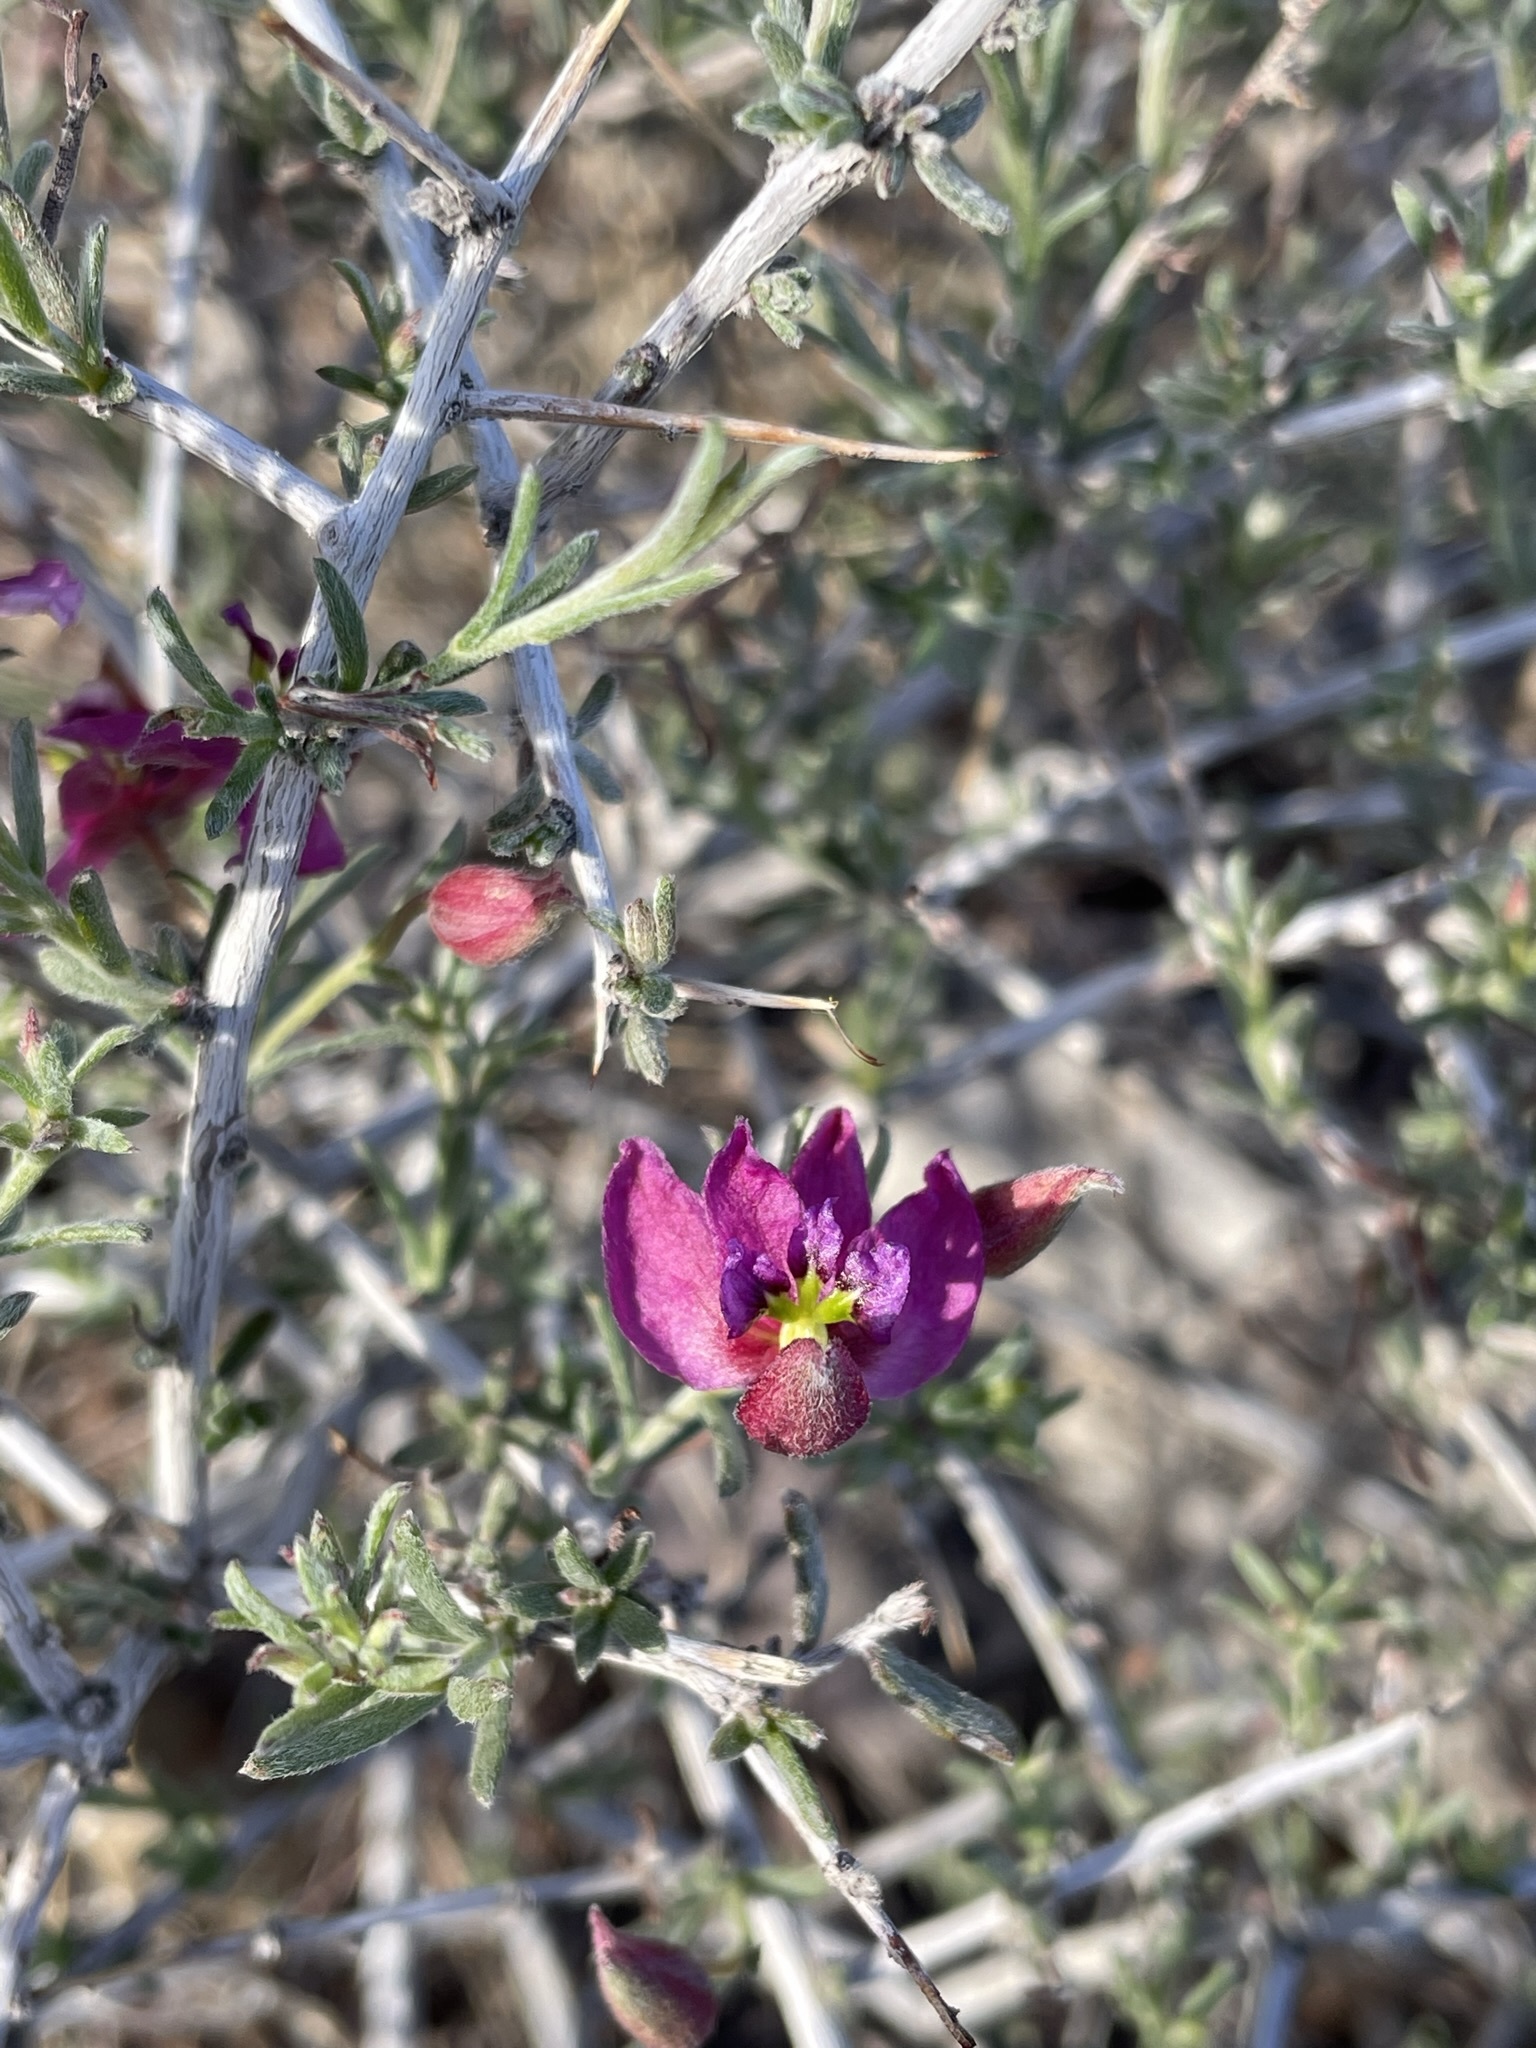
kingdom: Plantae
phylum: Tracheophyta
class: Magnoliopsida
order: Zygophyllales
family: Krameriaceae
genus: Krameria
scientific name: Krameria erecta
